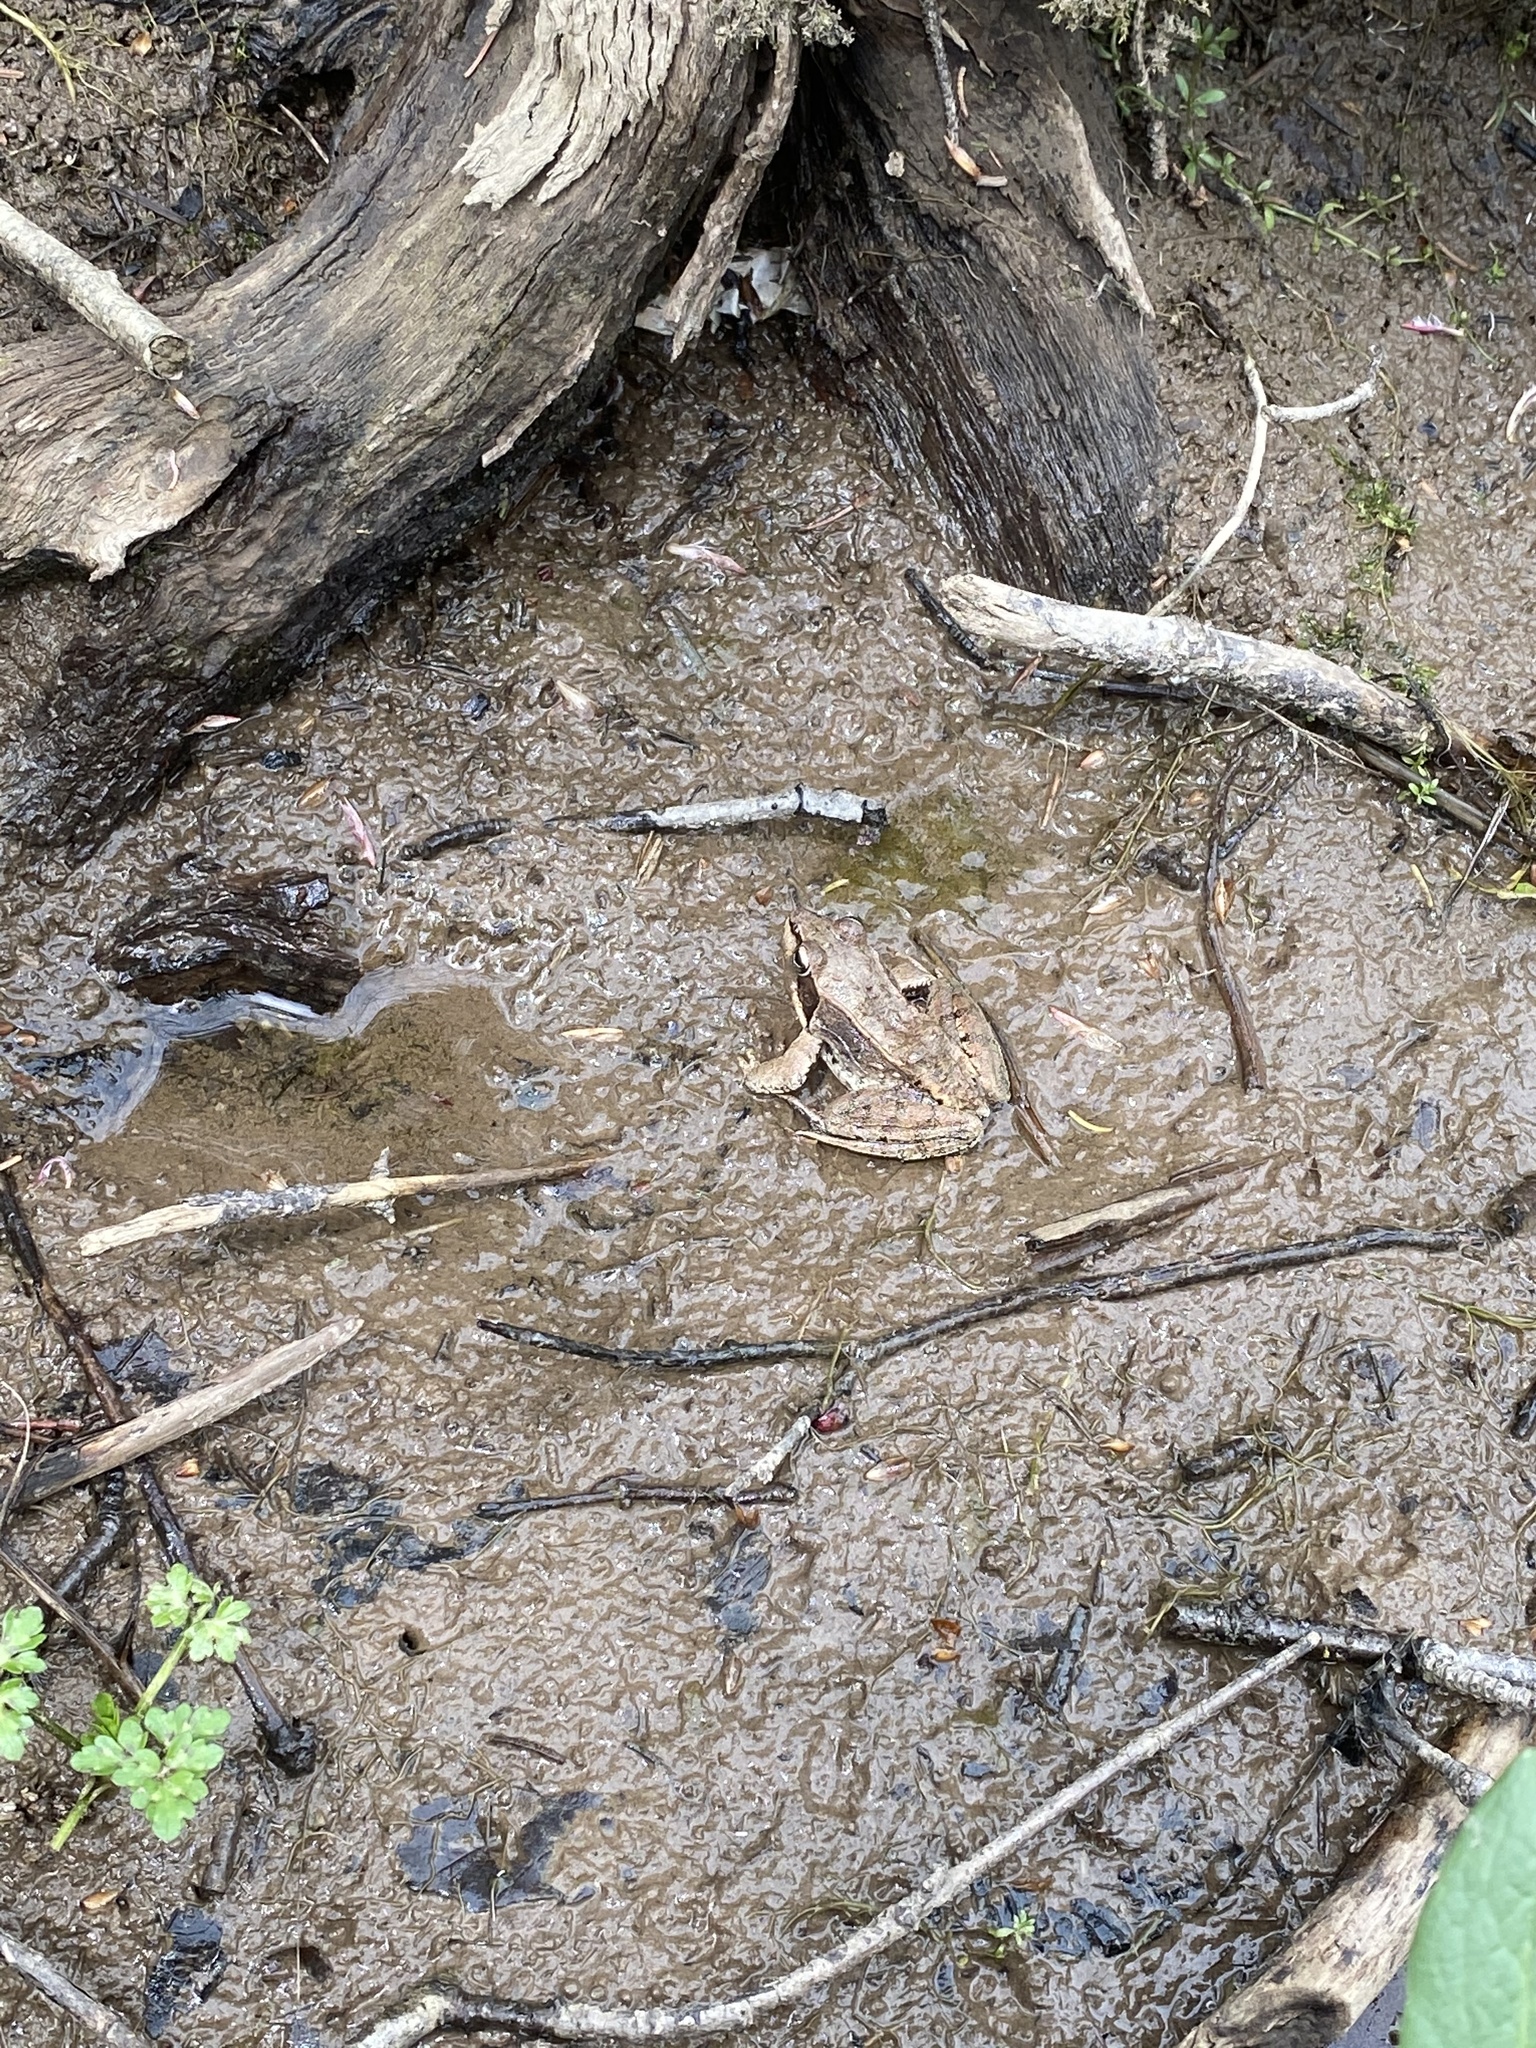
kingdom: Animalia
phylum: Chordata
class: Amphibia
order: Anura
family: Ranidae
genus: Lithobates
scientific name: Lithobates sylvaticus
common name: Wood frog
